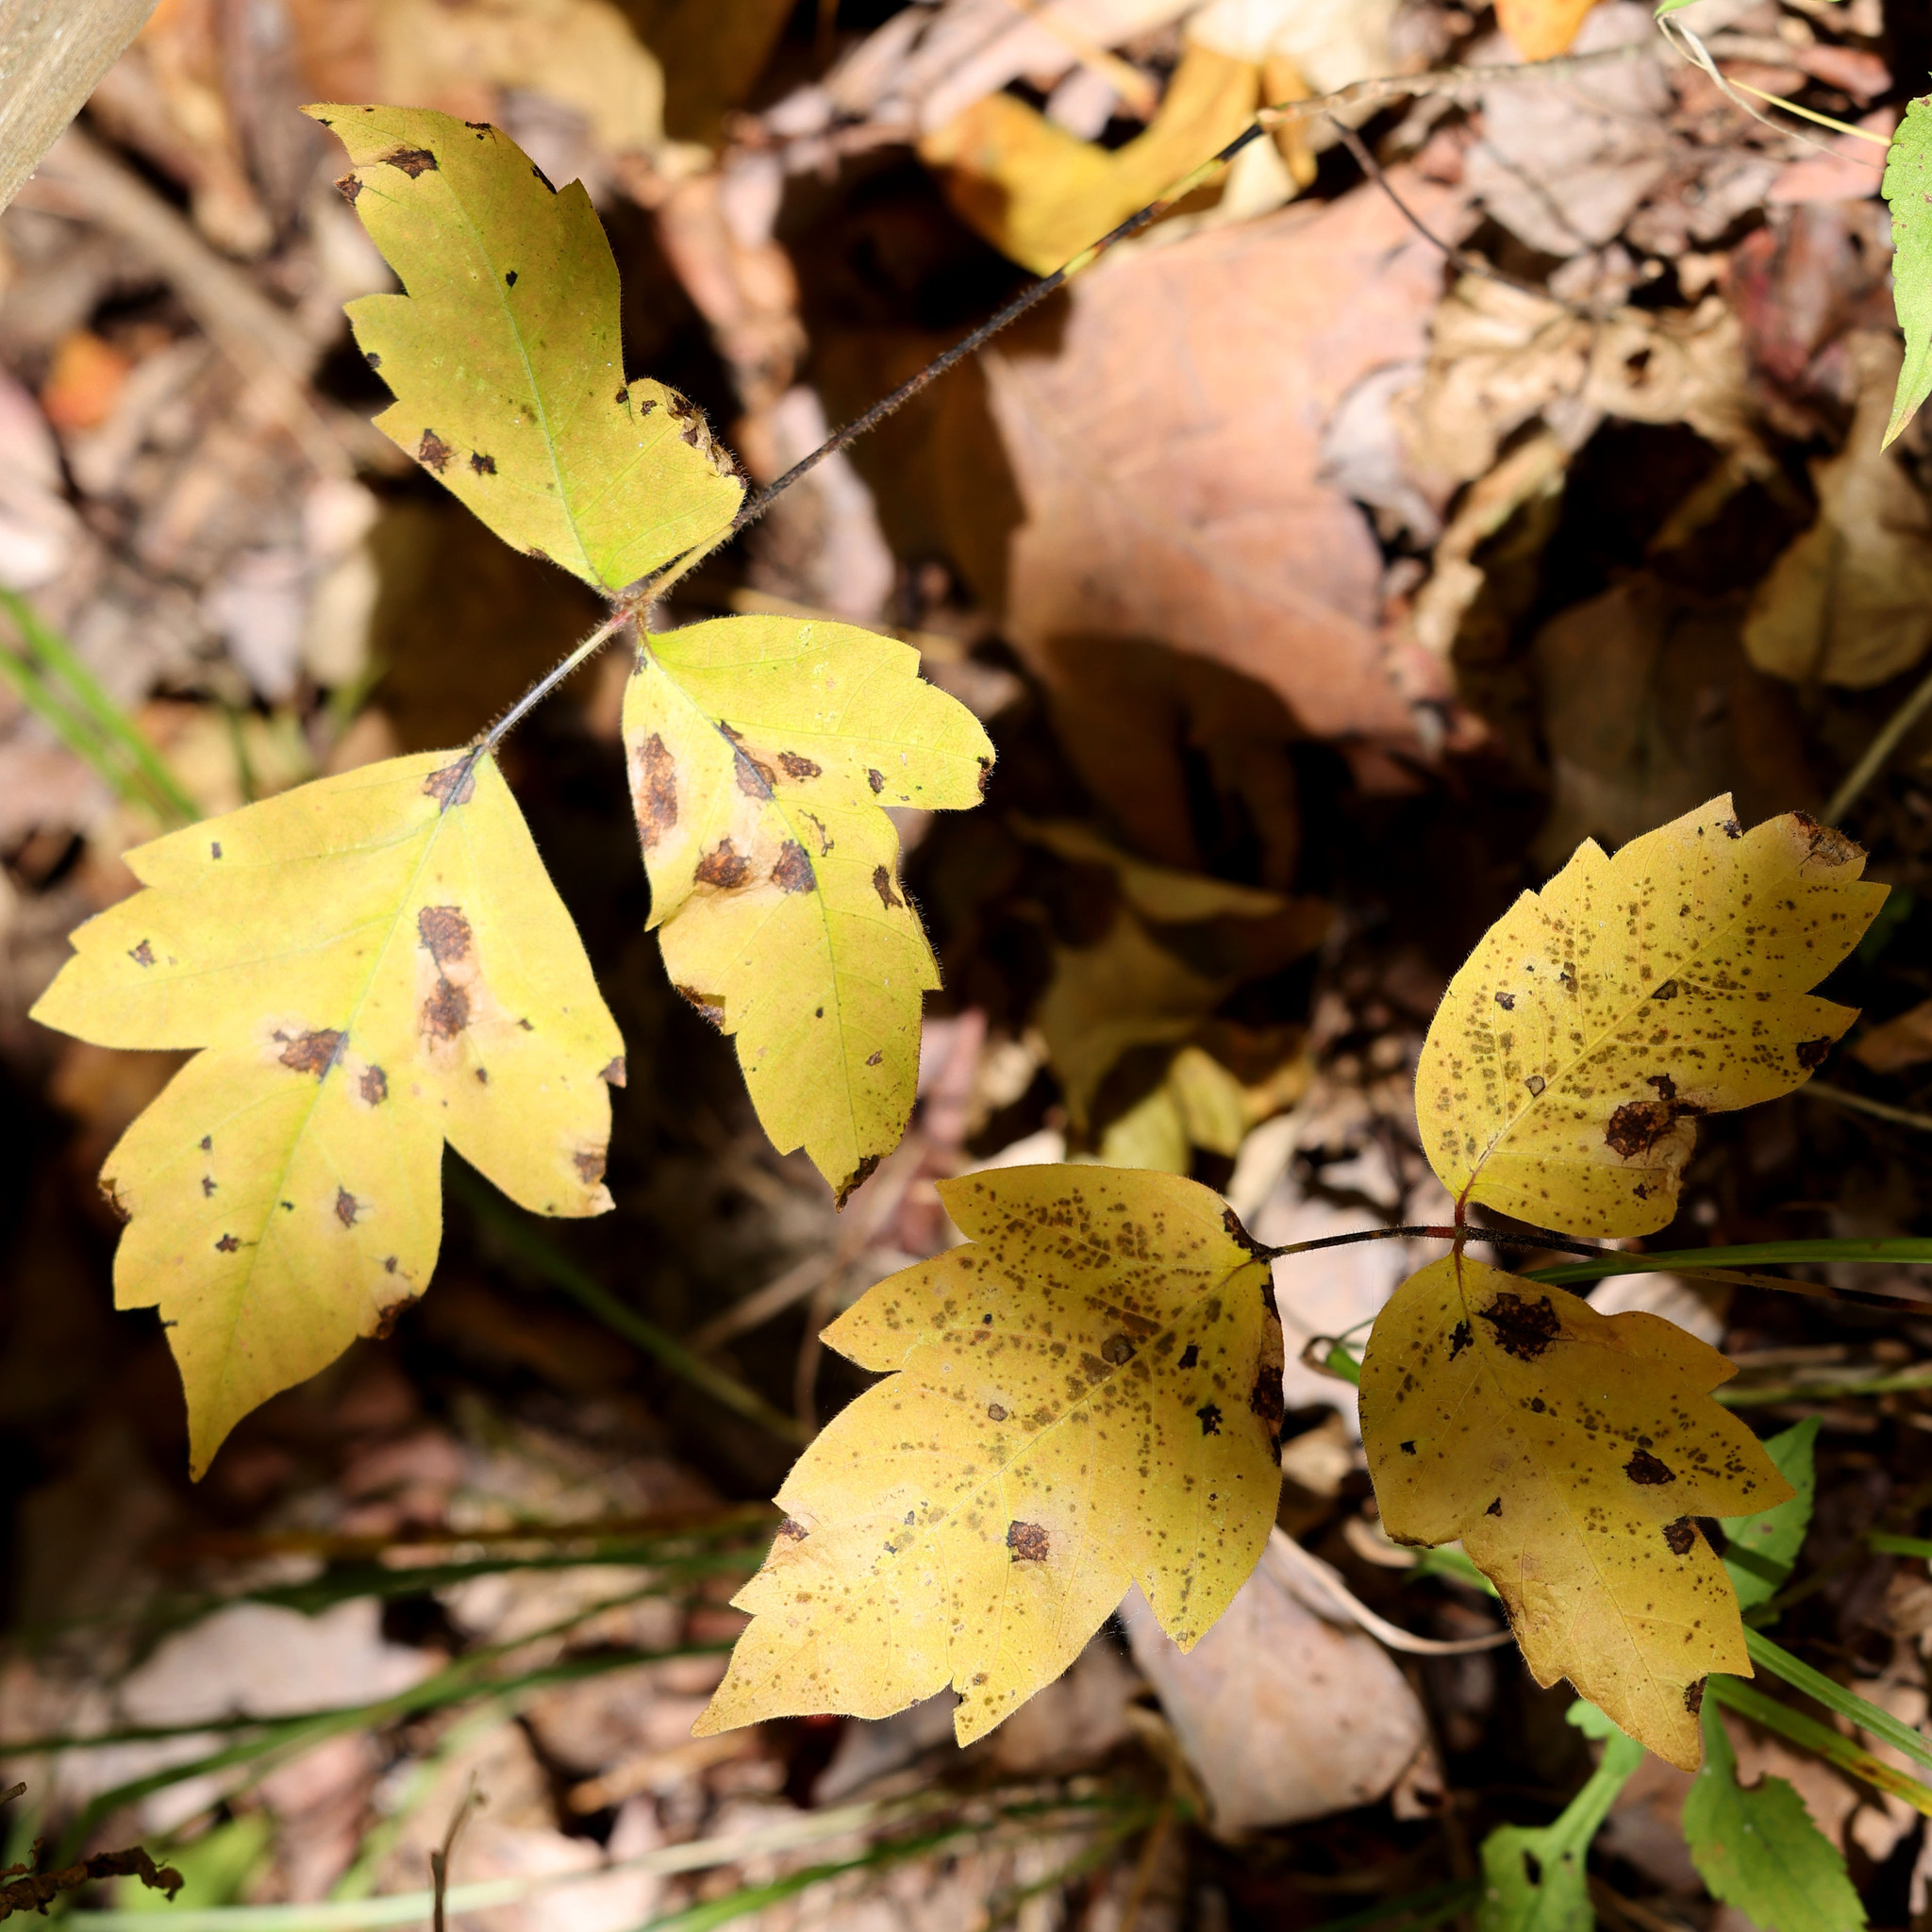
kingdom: Plantae
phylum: Tracheophyta
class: Magnoliopsida
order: Sapindales
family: Anacardiaceae
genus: Toxicodendron
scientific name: Toxicodendron radicans
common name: Poison ivy
